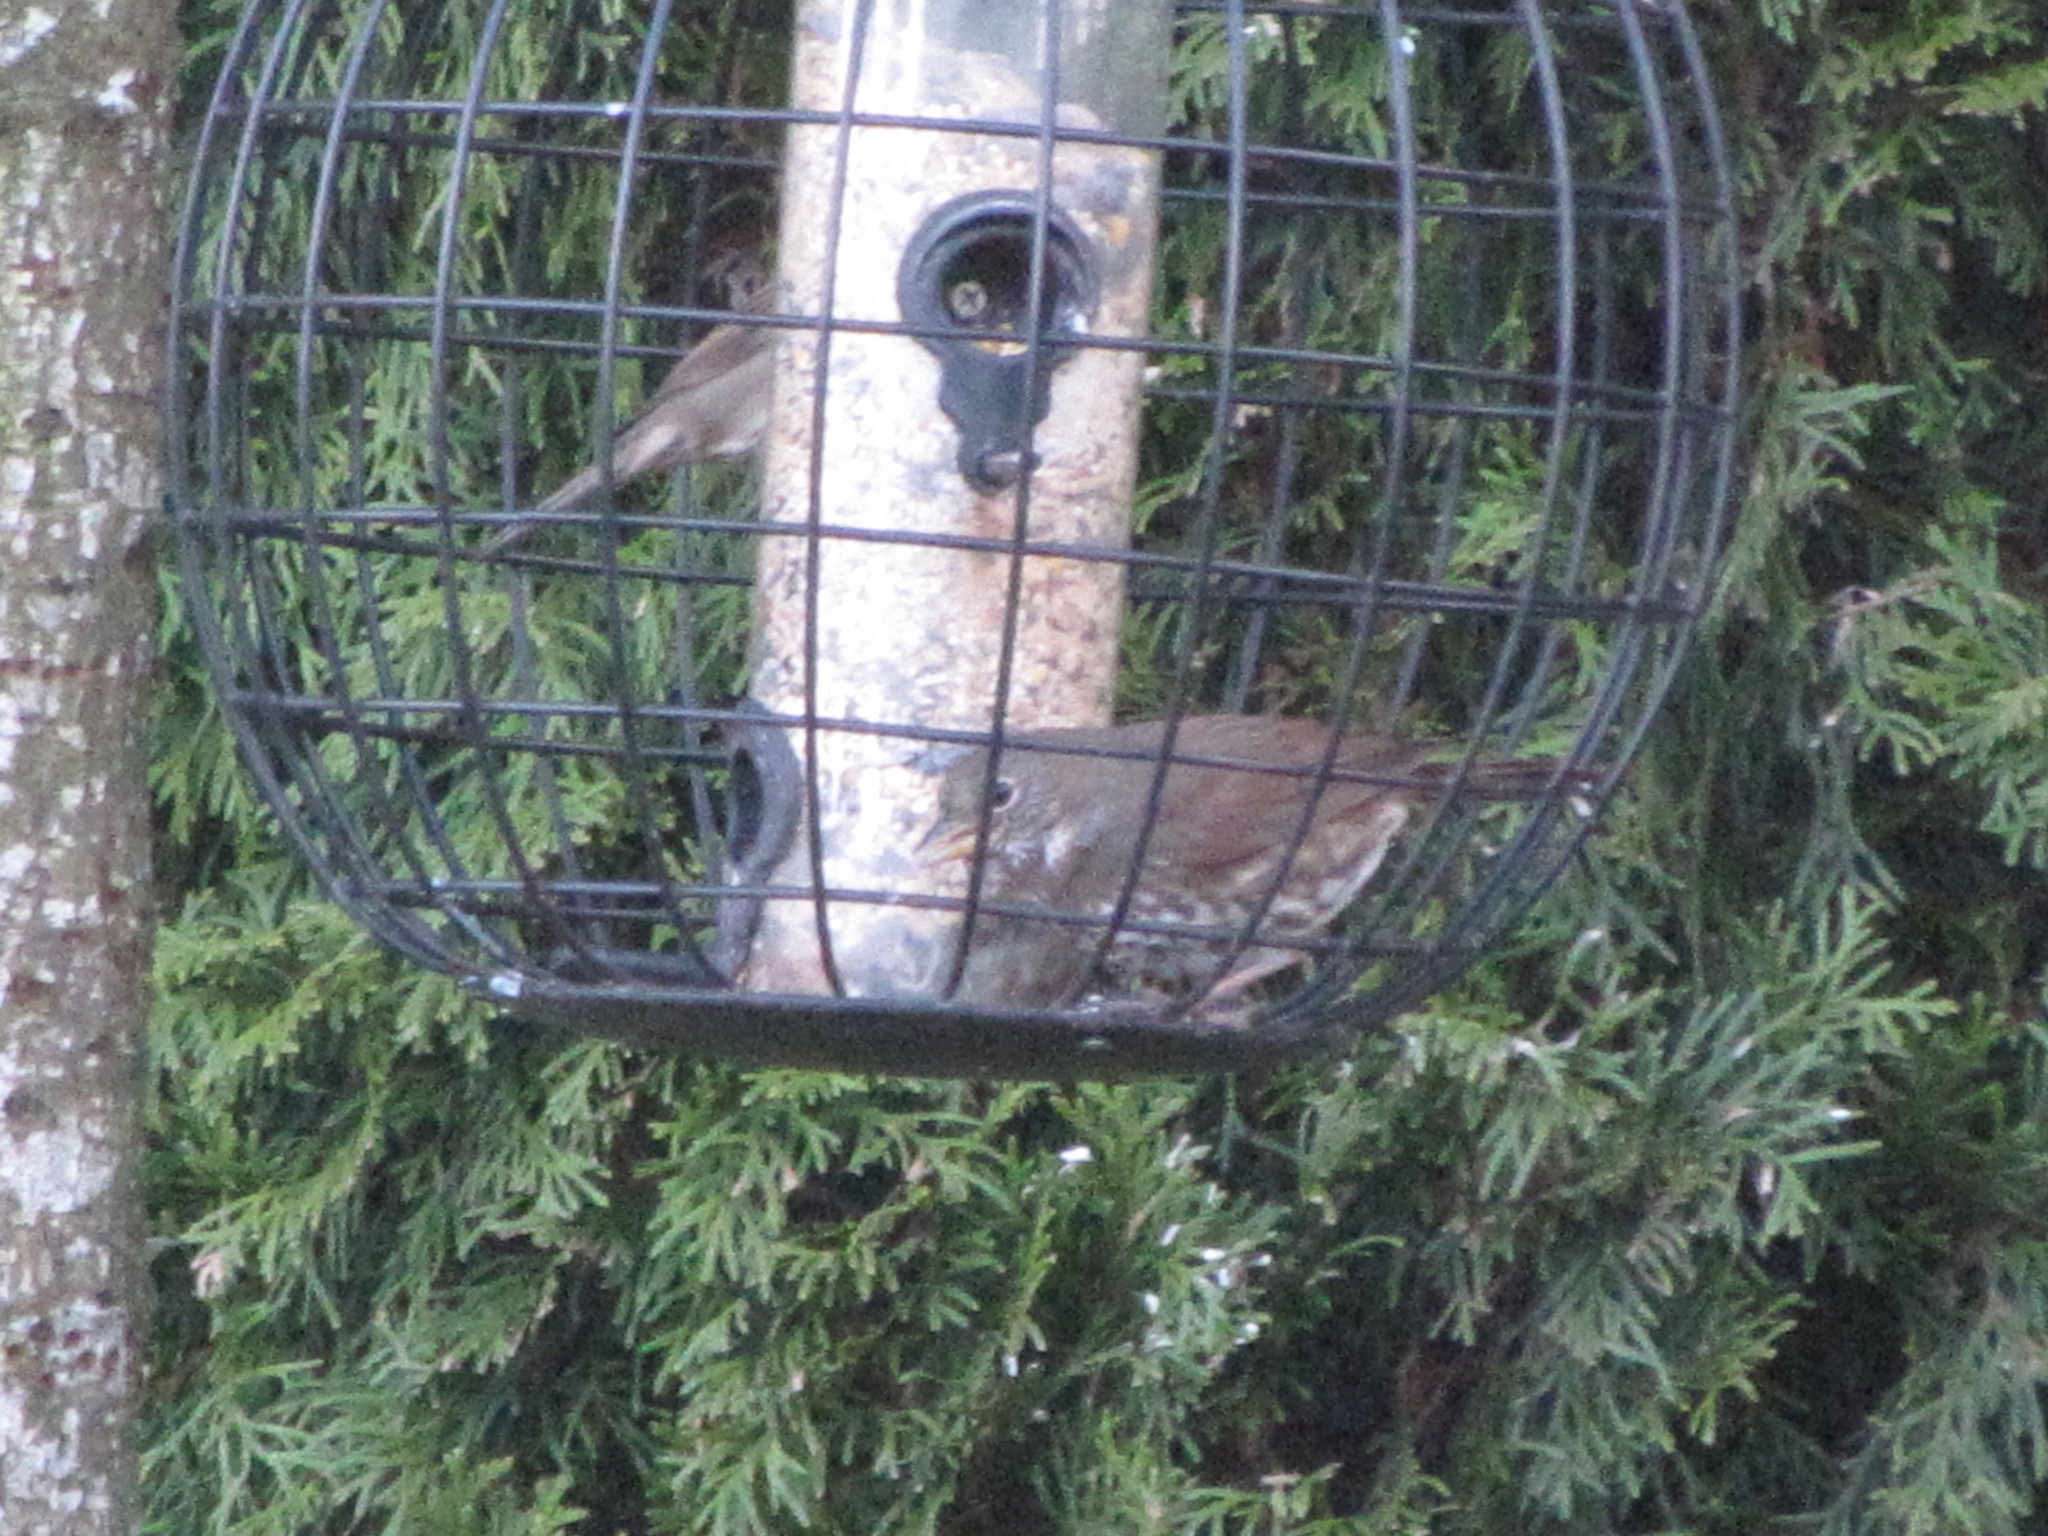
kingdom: Animalia
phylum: Chordata
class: Aves
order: Passeriformes
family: Passerellidae
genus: Passerella
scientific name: Passerella iliaca
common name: Fox sparrow
